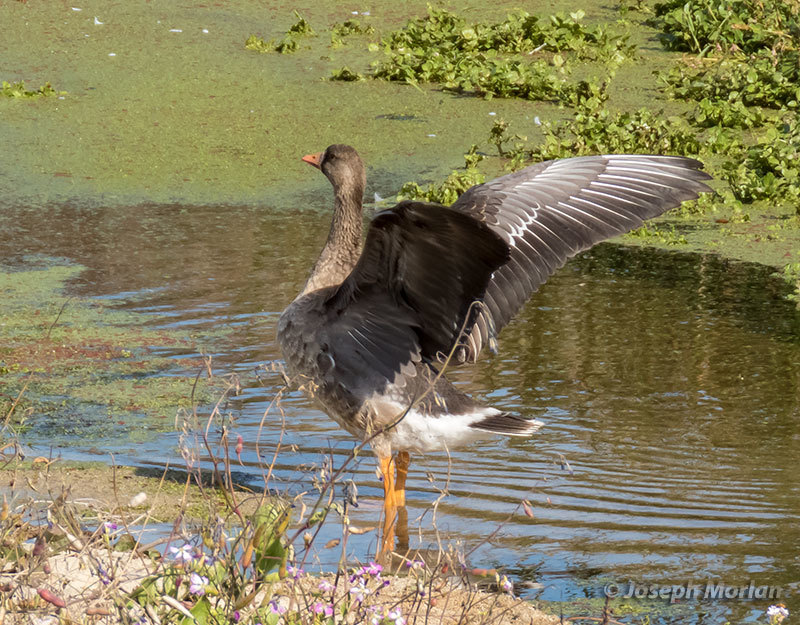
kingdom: Animalia
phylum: Chordata
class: Aves
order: Anseriformes
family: Anatidae
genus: Anser
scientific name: Anser albifrons
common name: Greater white-fronted goose
